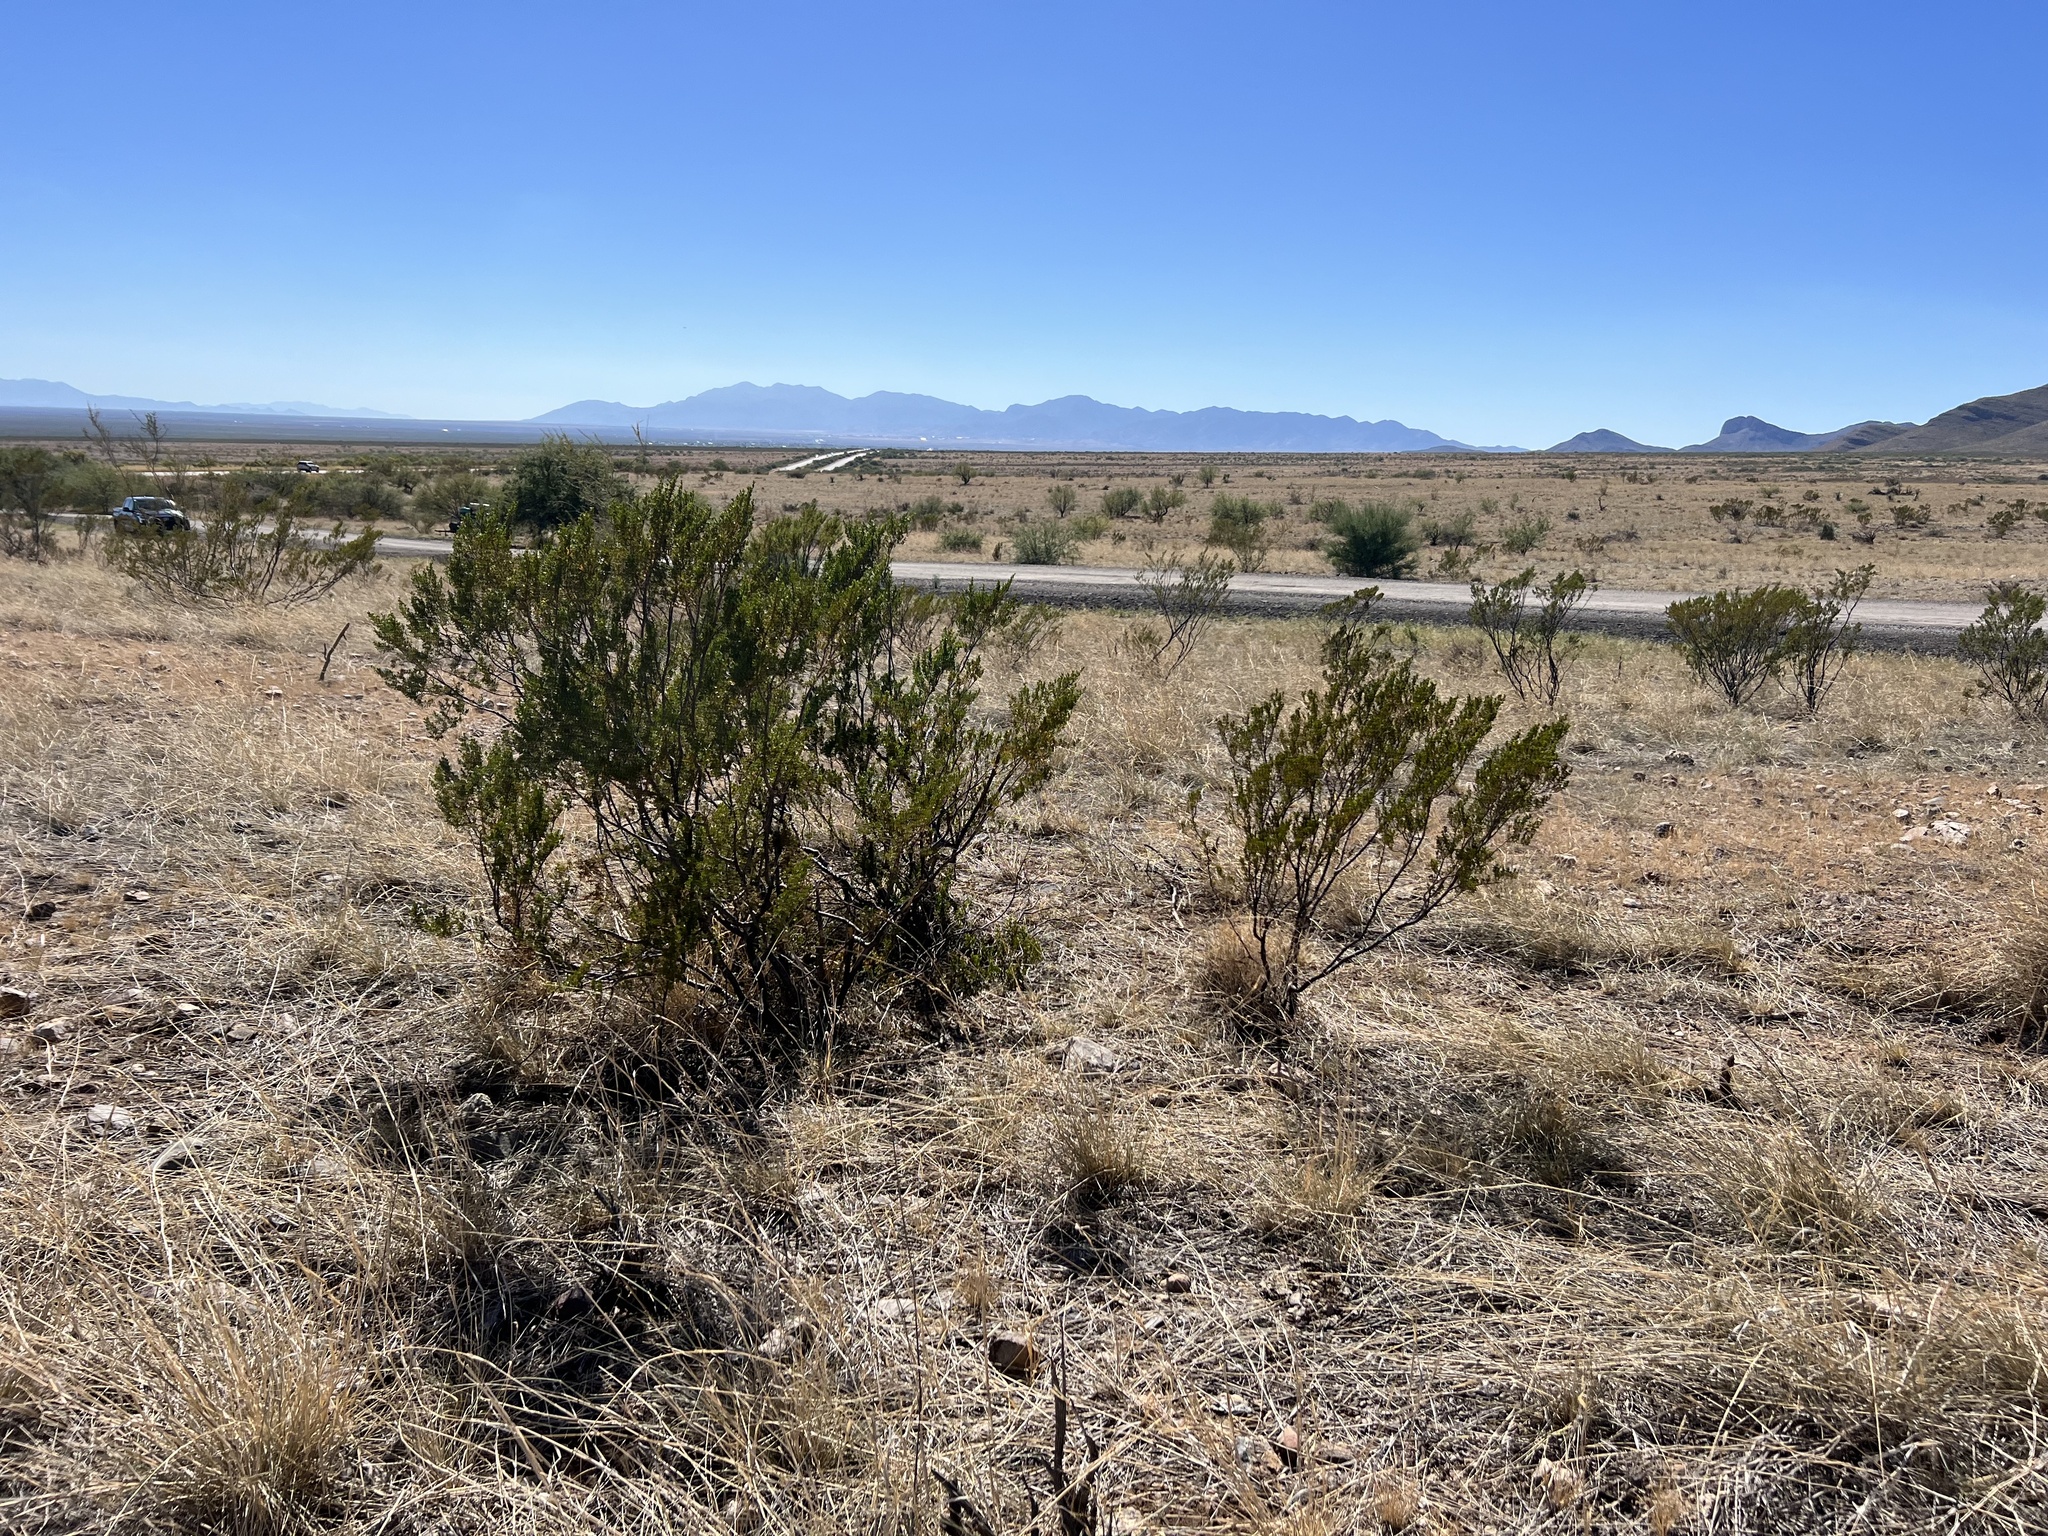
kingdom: Plantae
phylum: Tracheophyta
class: Magnoliopsida
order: Zygophyllales
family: Zygophyllaceae
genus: Larrea
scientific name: Larrea tridentata
